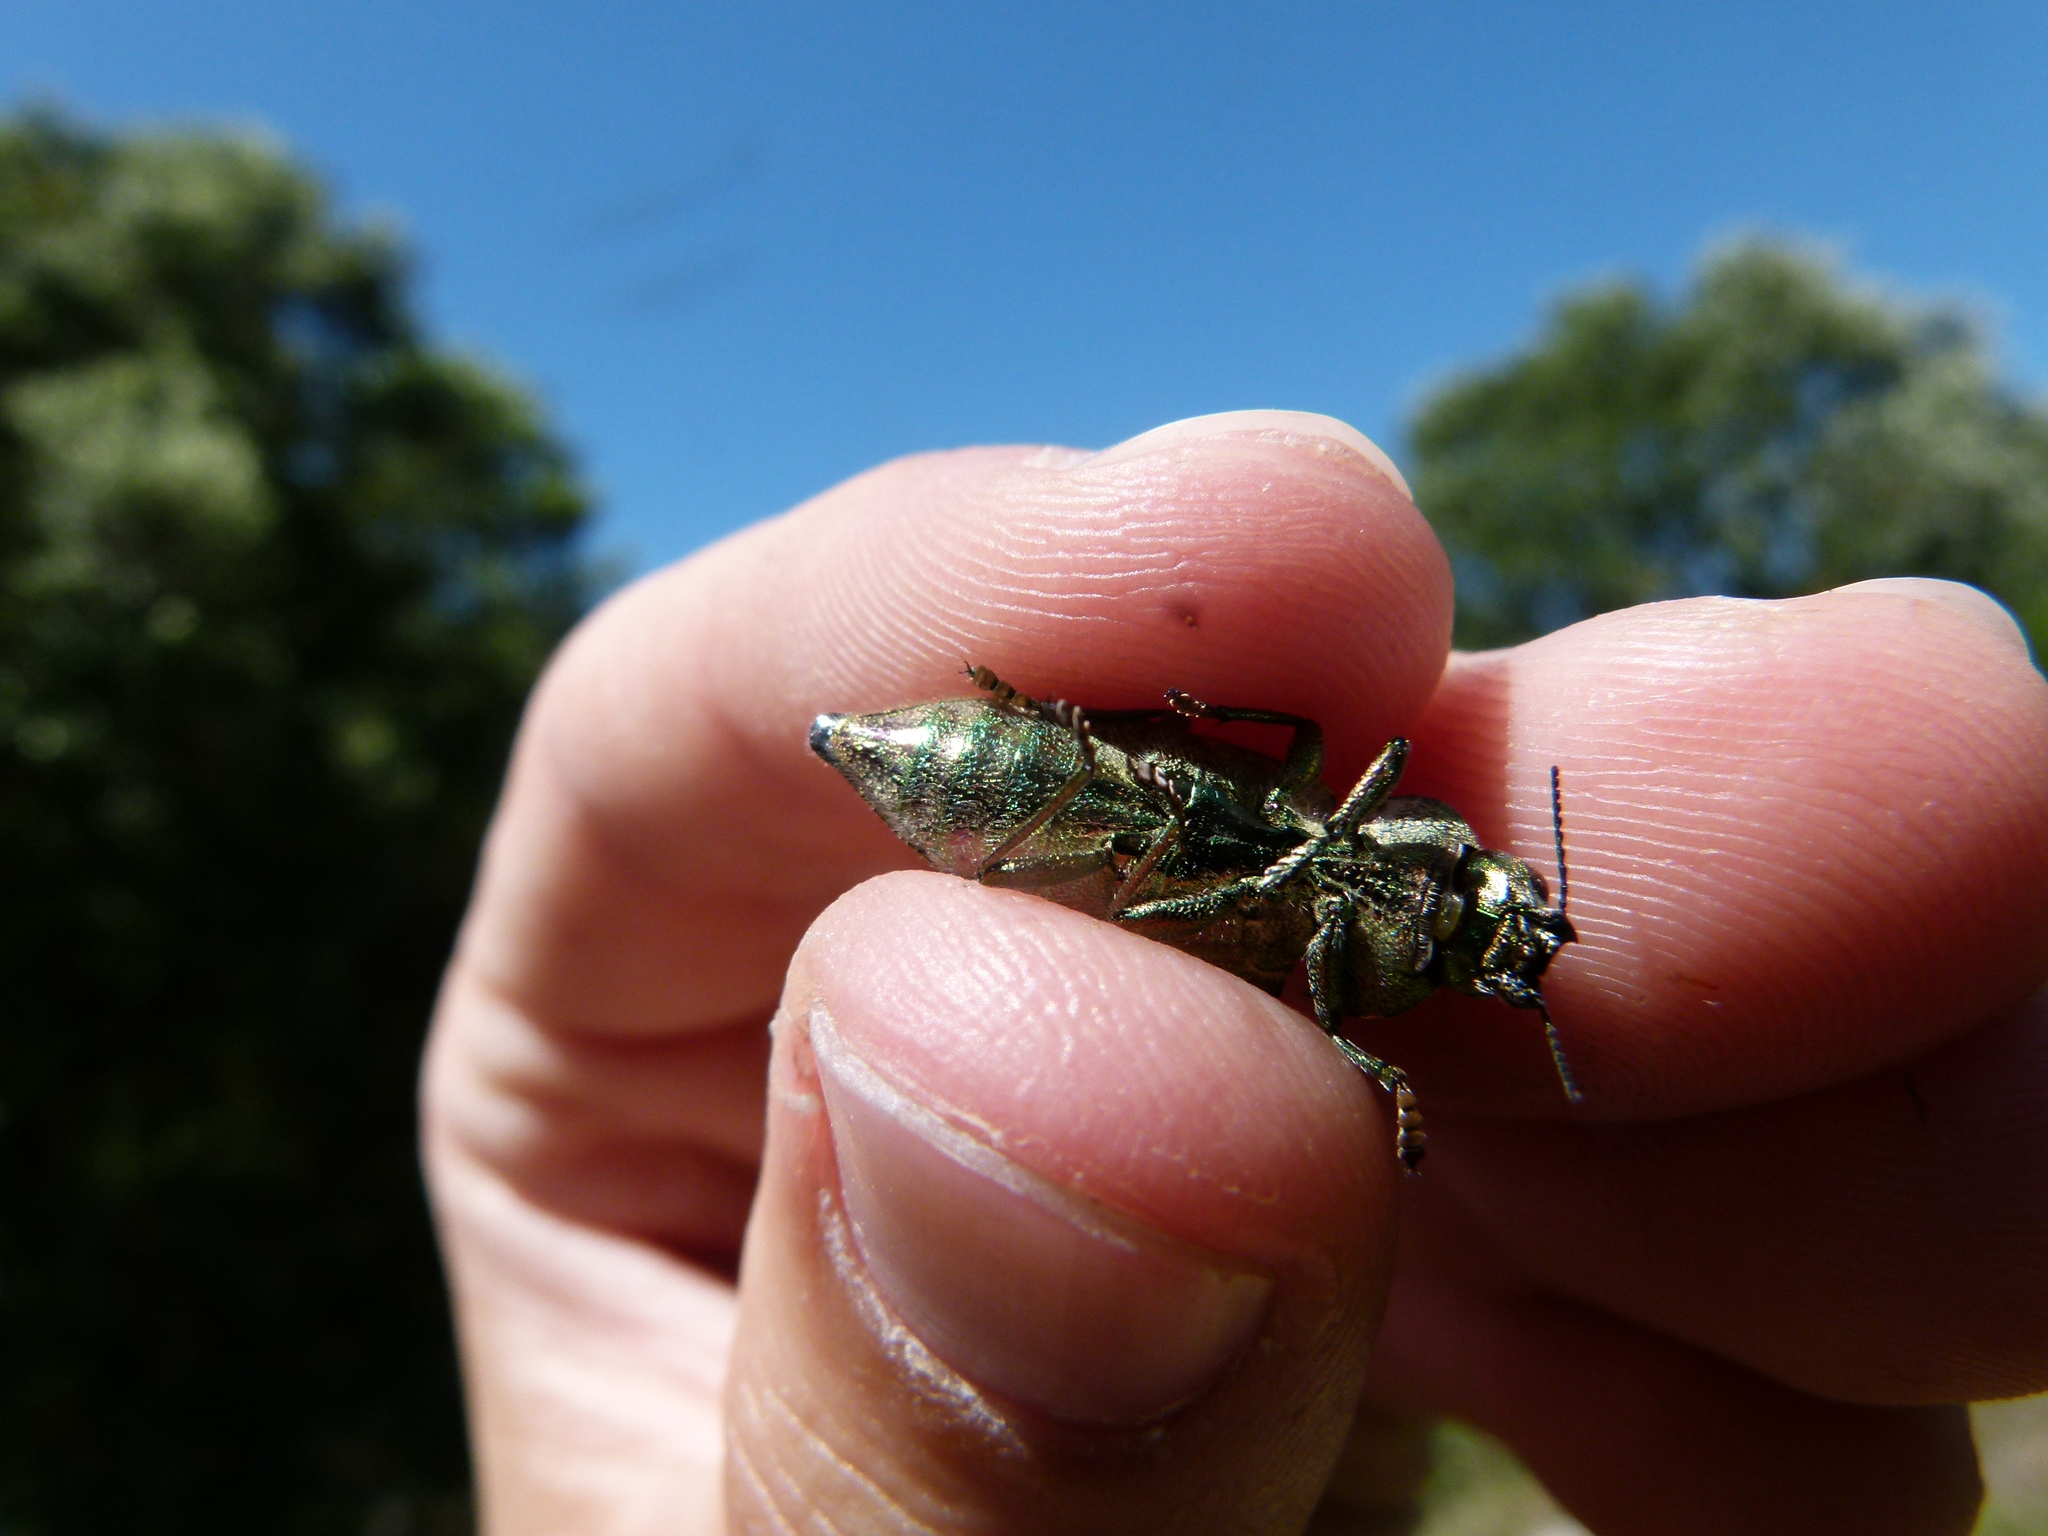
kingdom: Animalia
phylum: Arthropoda
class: Insecta
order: Coleoptera
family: Buprestidae
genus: Latipalpis
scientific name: Latipalpis plana
